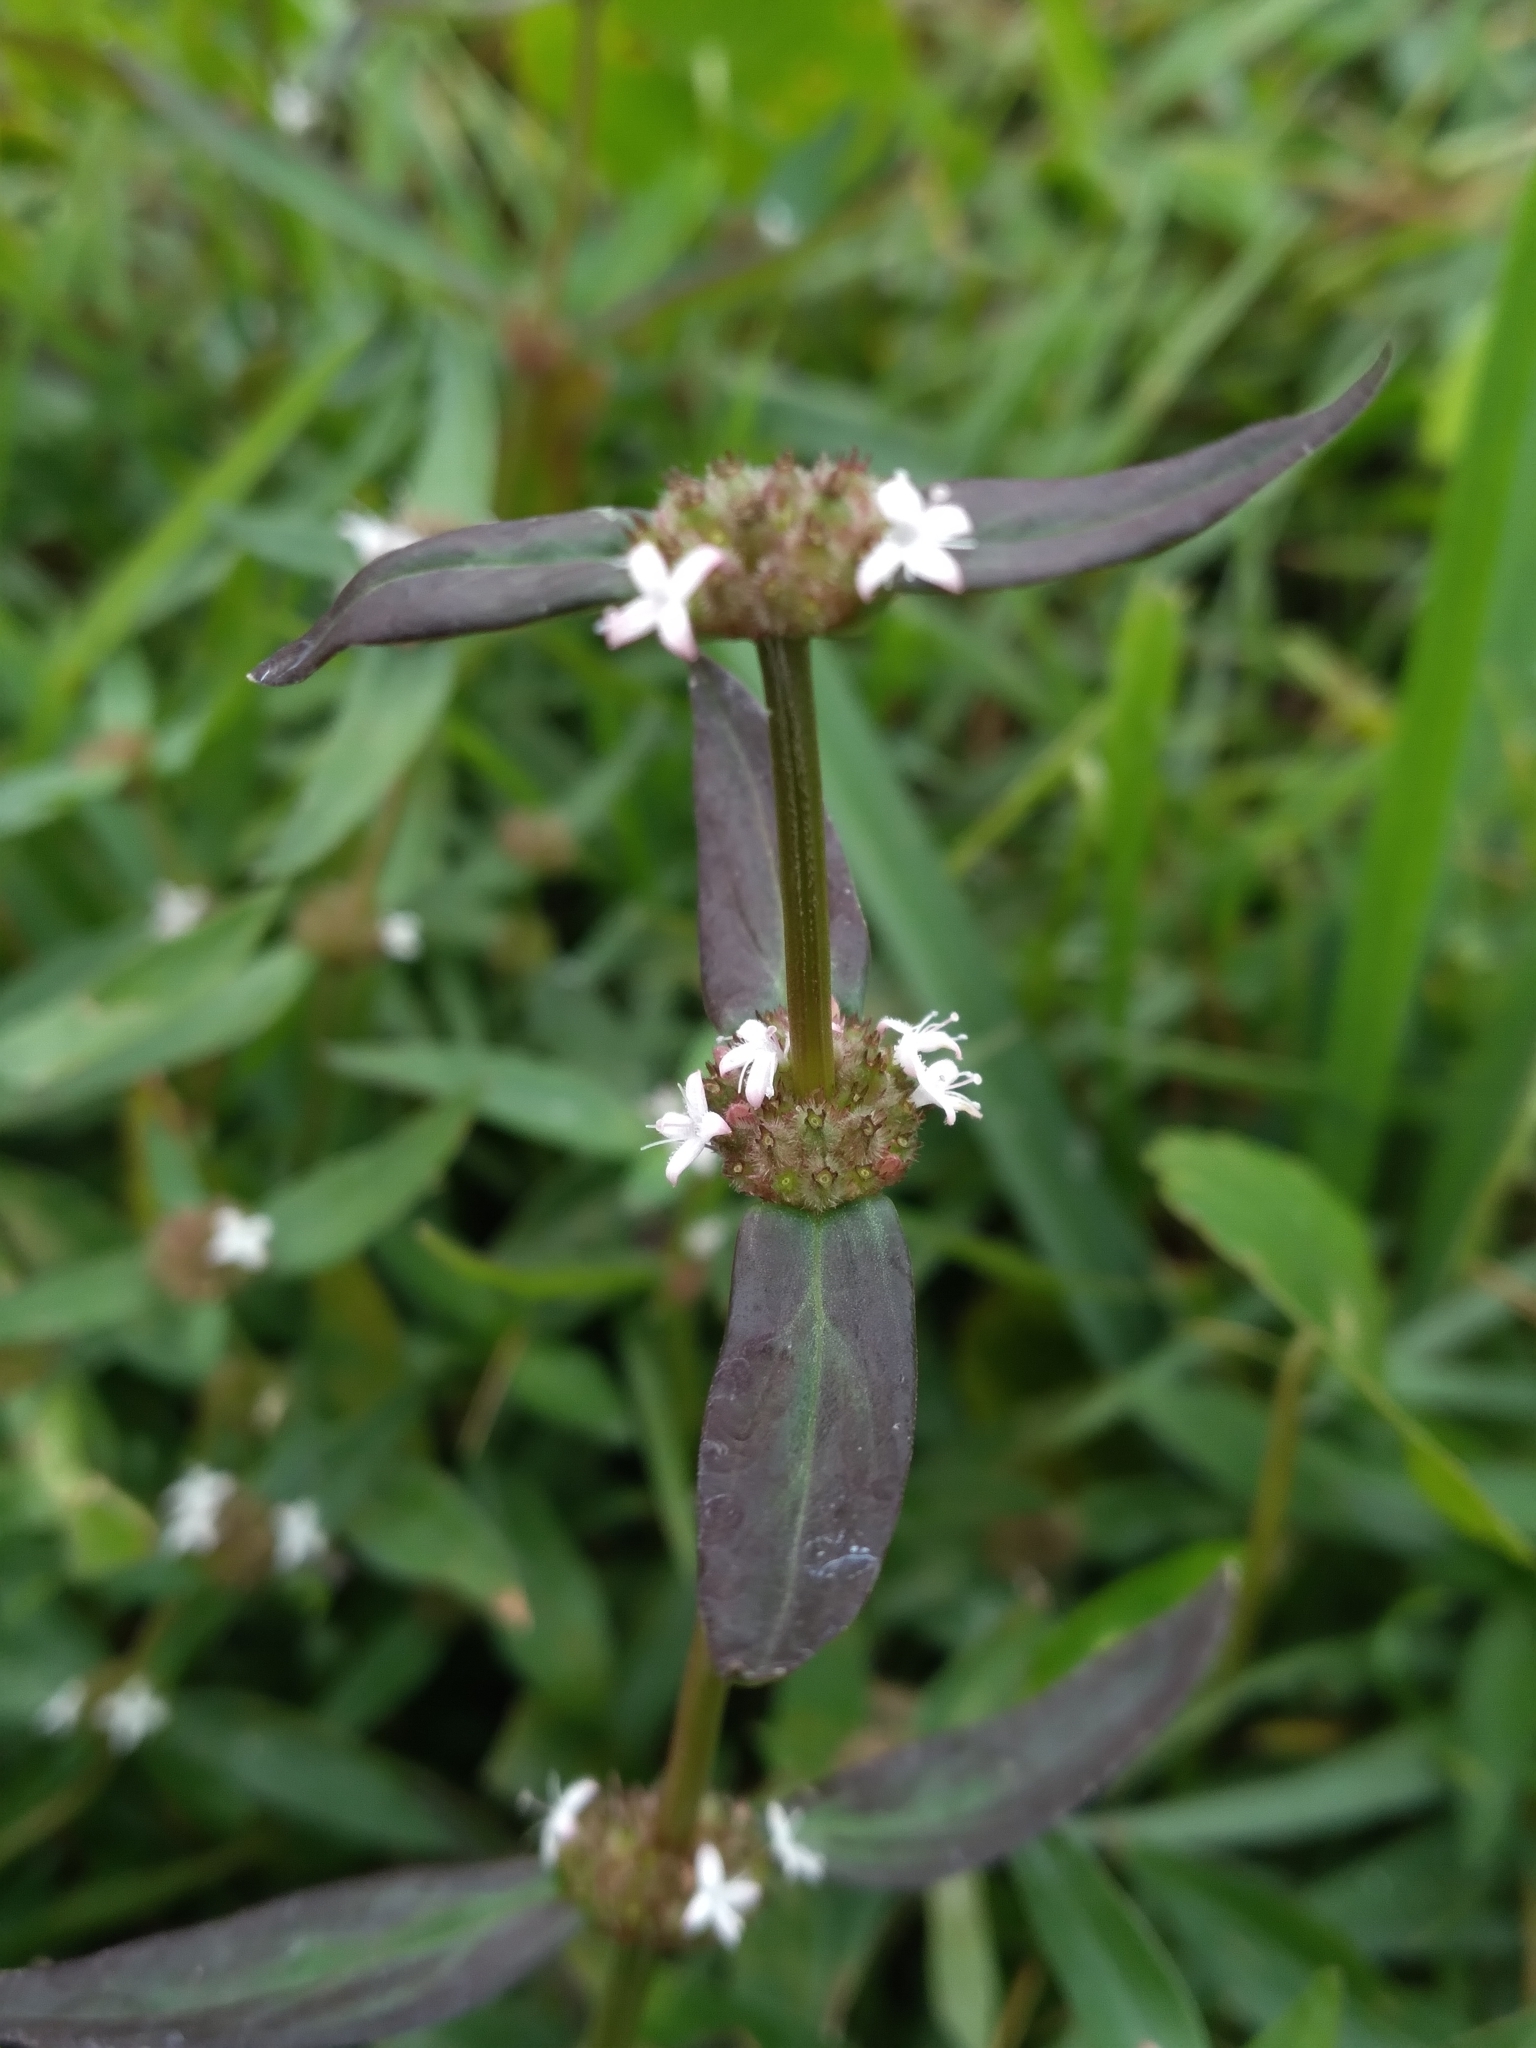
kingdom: Plantae
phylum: Tracheophyta
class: Magnoliopsida
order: Gentianales
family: Rubiaceae
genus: Spermacoce
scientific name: Spermacoce remota
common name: Woodland false buttonweed
